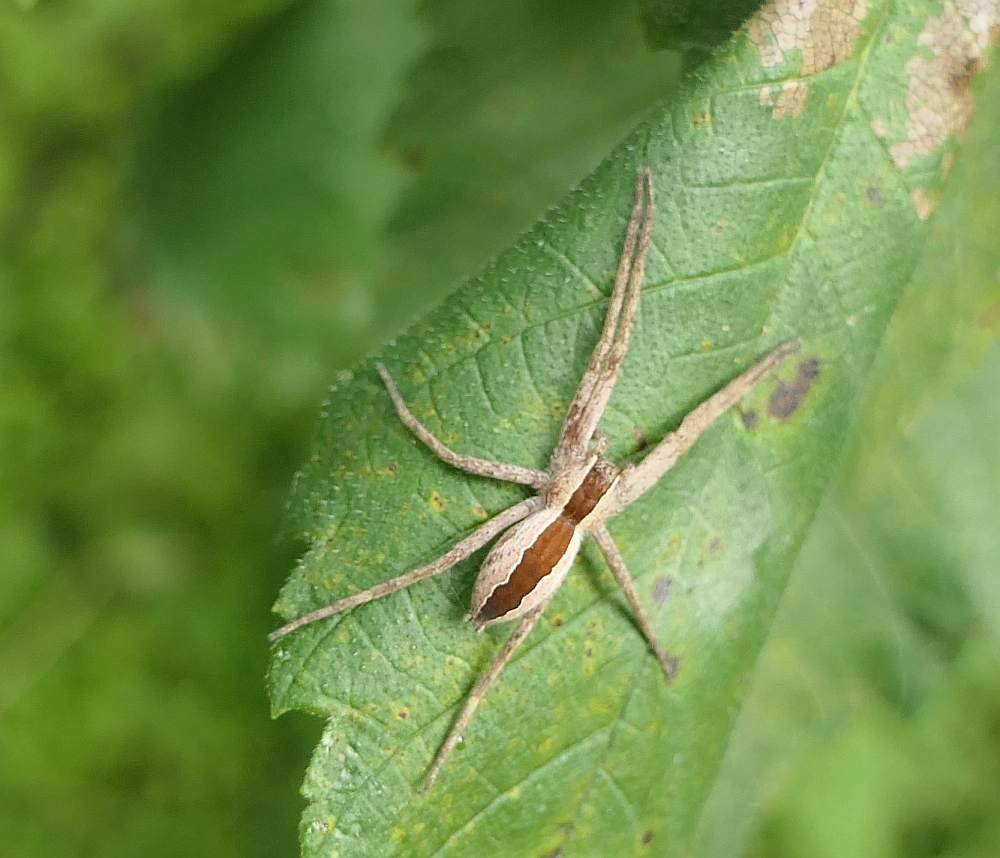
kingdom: Animalia
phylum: Arthropoda
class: Arachnida
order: Araneae
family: Pisauridae
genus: Pisaurina
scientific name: Pisaurina mira
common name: American nursery web spider
